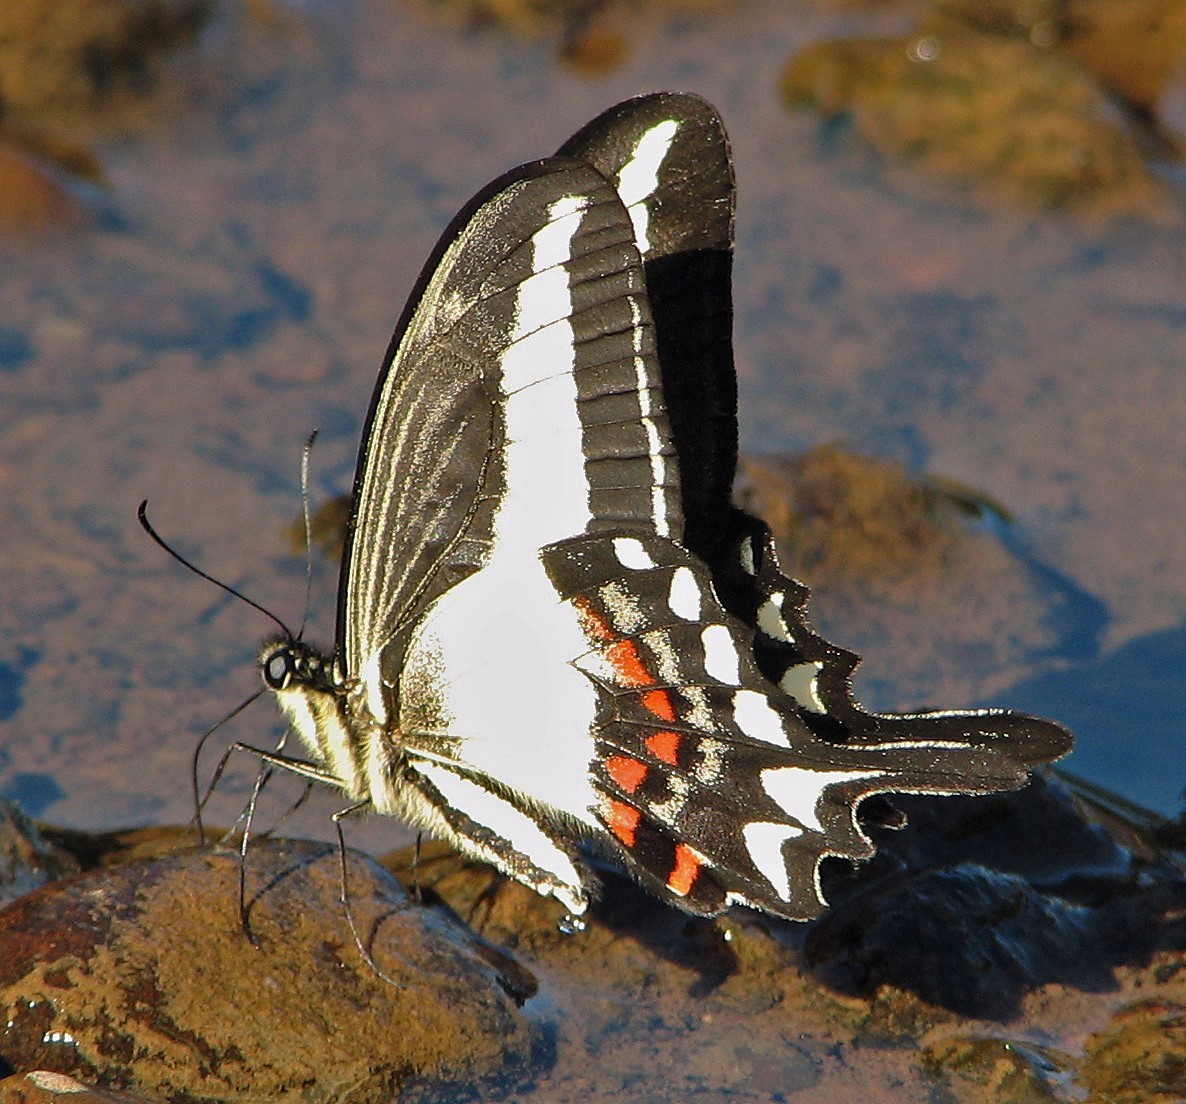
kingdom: Animalia
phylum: Arthropoda
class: Insecta
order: Lepidoptera
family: Papilionidae
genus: Heraclides
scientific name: Heraclides hectorides
